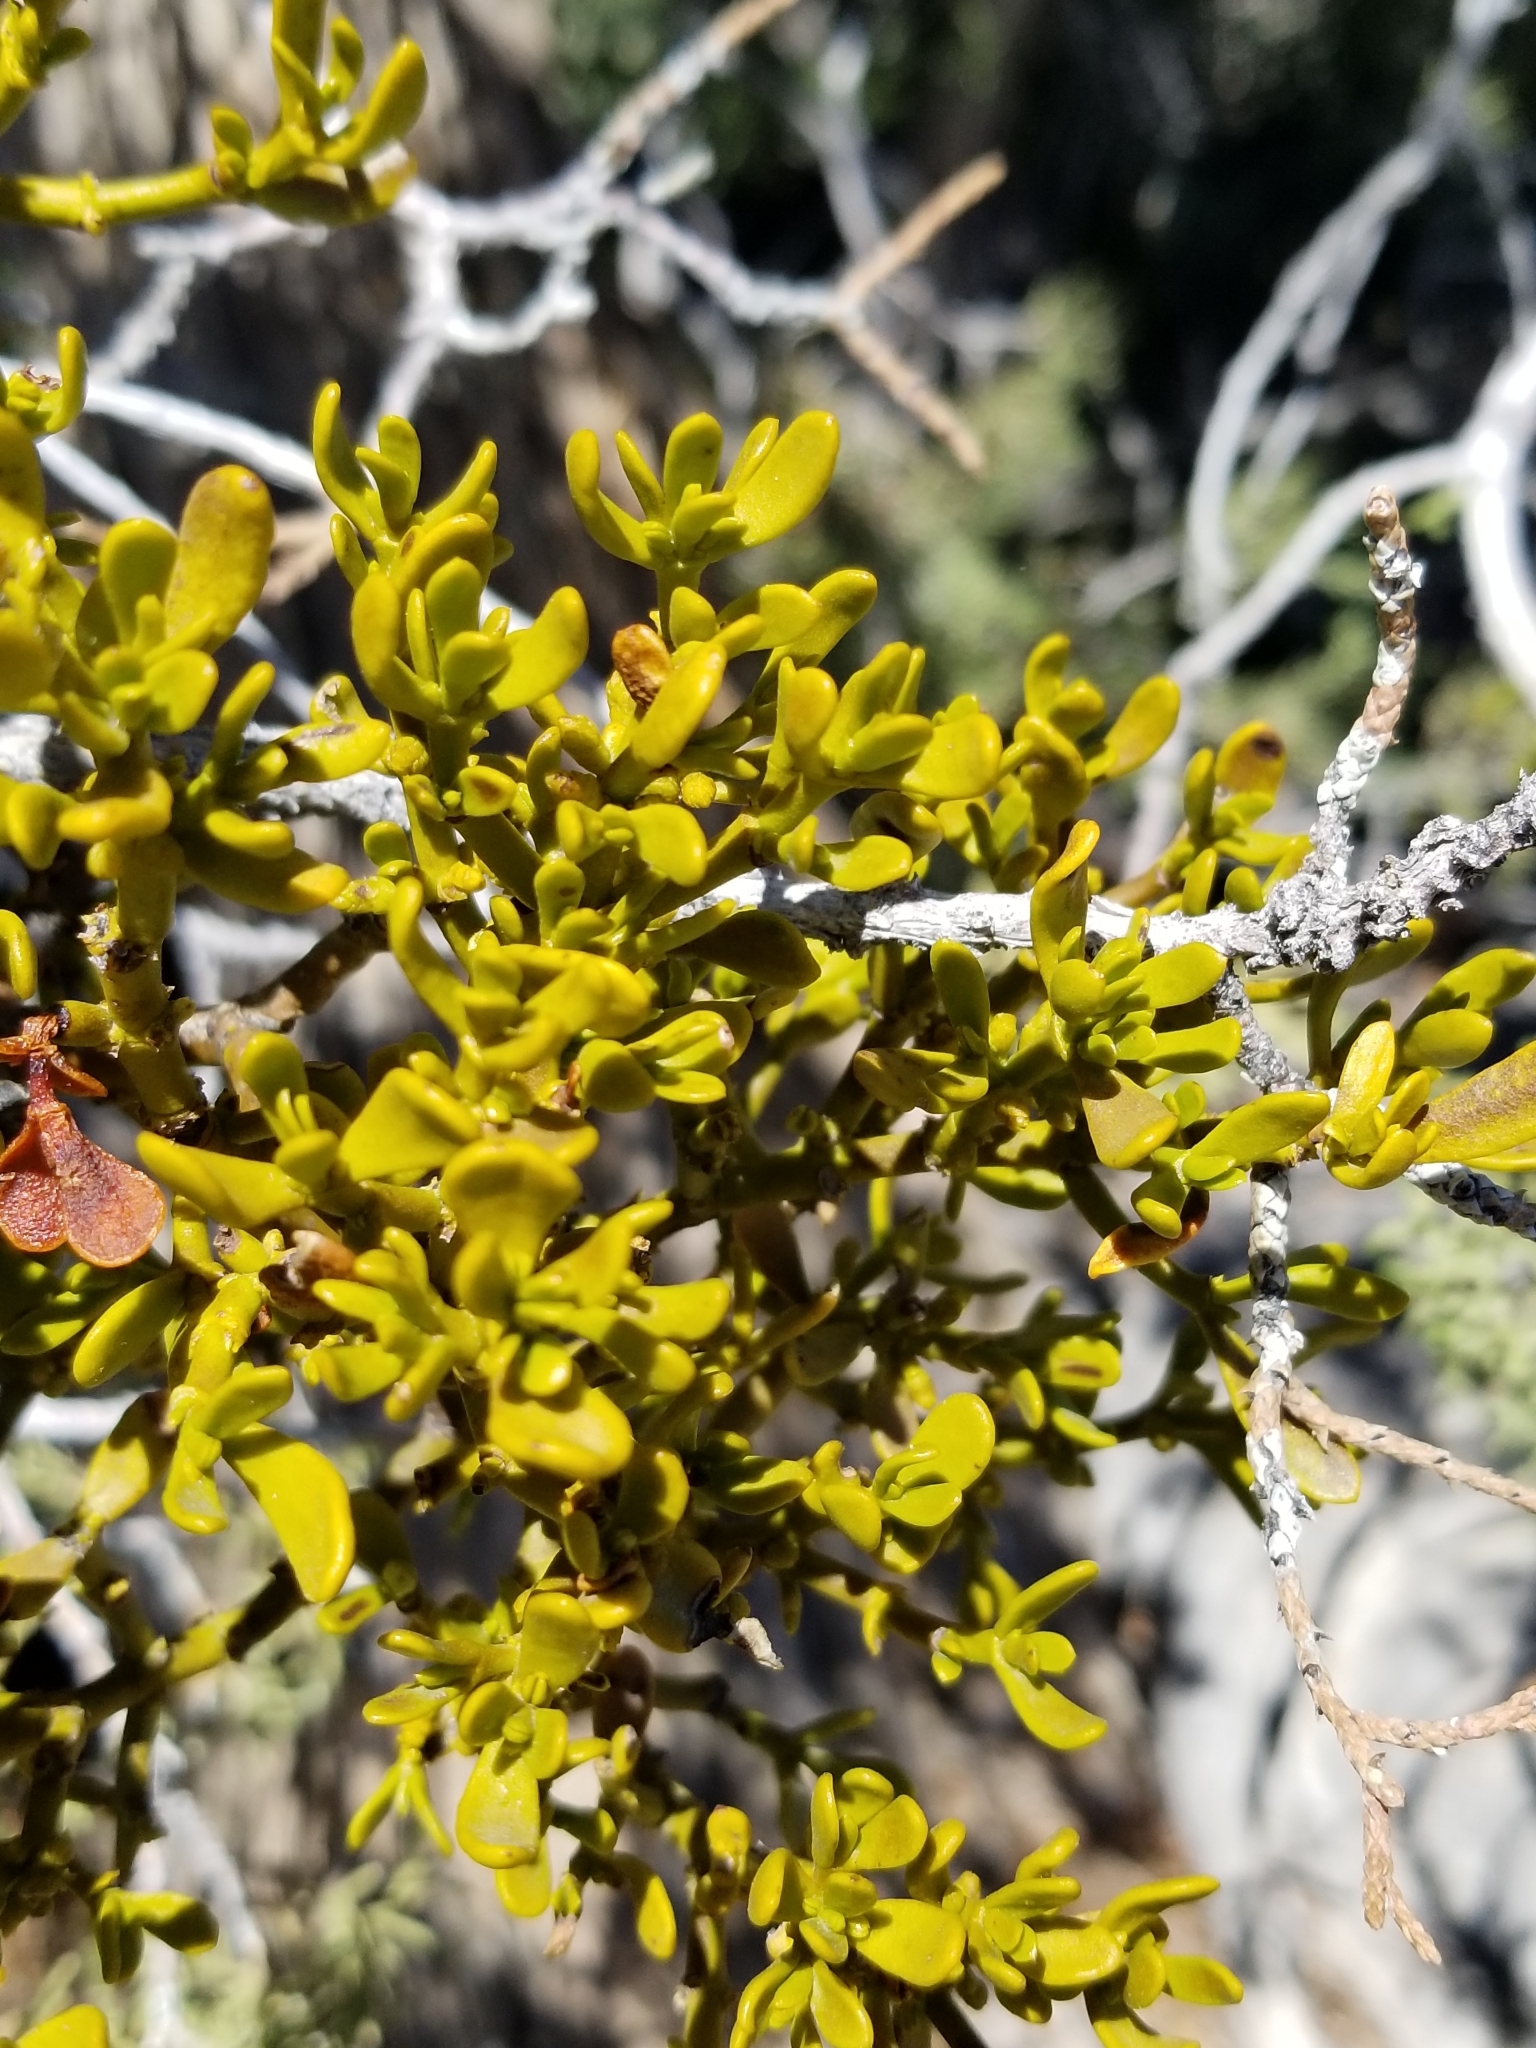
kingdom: Plantae
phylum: Tracheophyta
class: Magnoliopsida
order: Santalales
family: Viscaceae
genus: Phoradendron
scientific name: Phoradendron bolleanum
